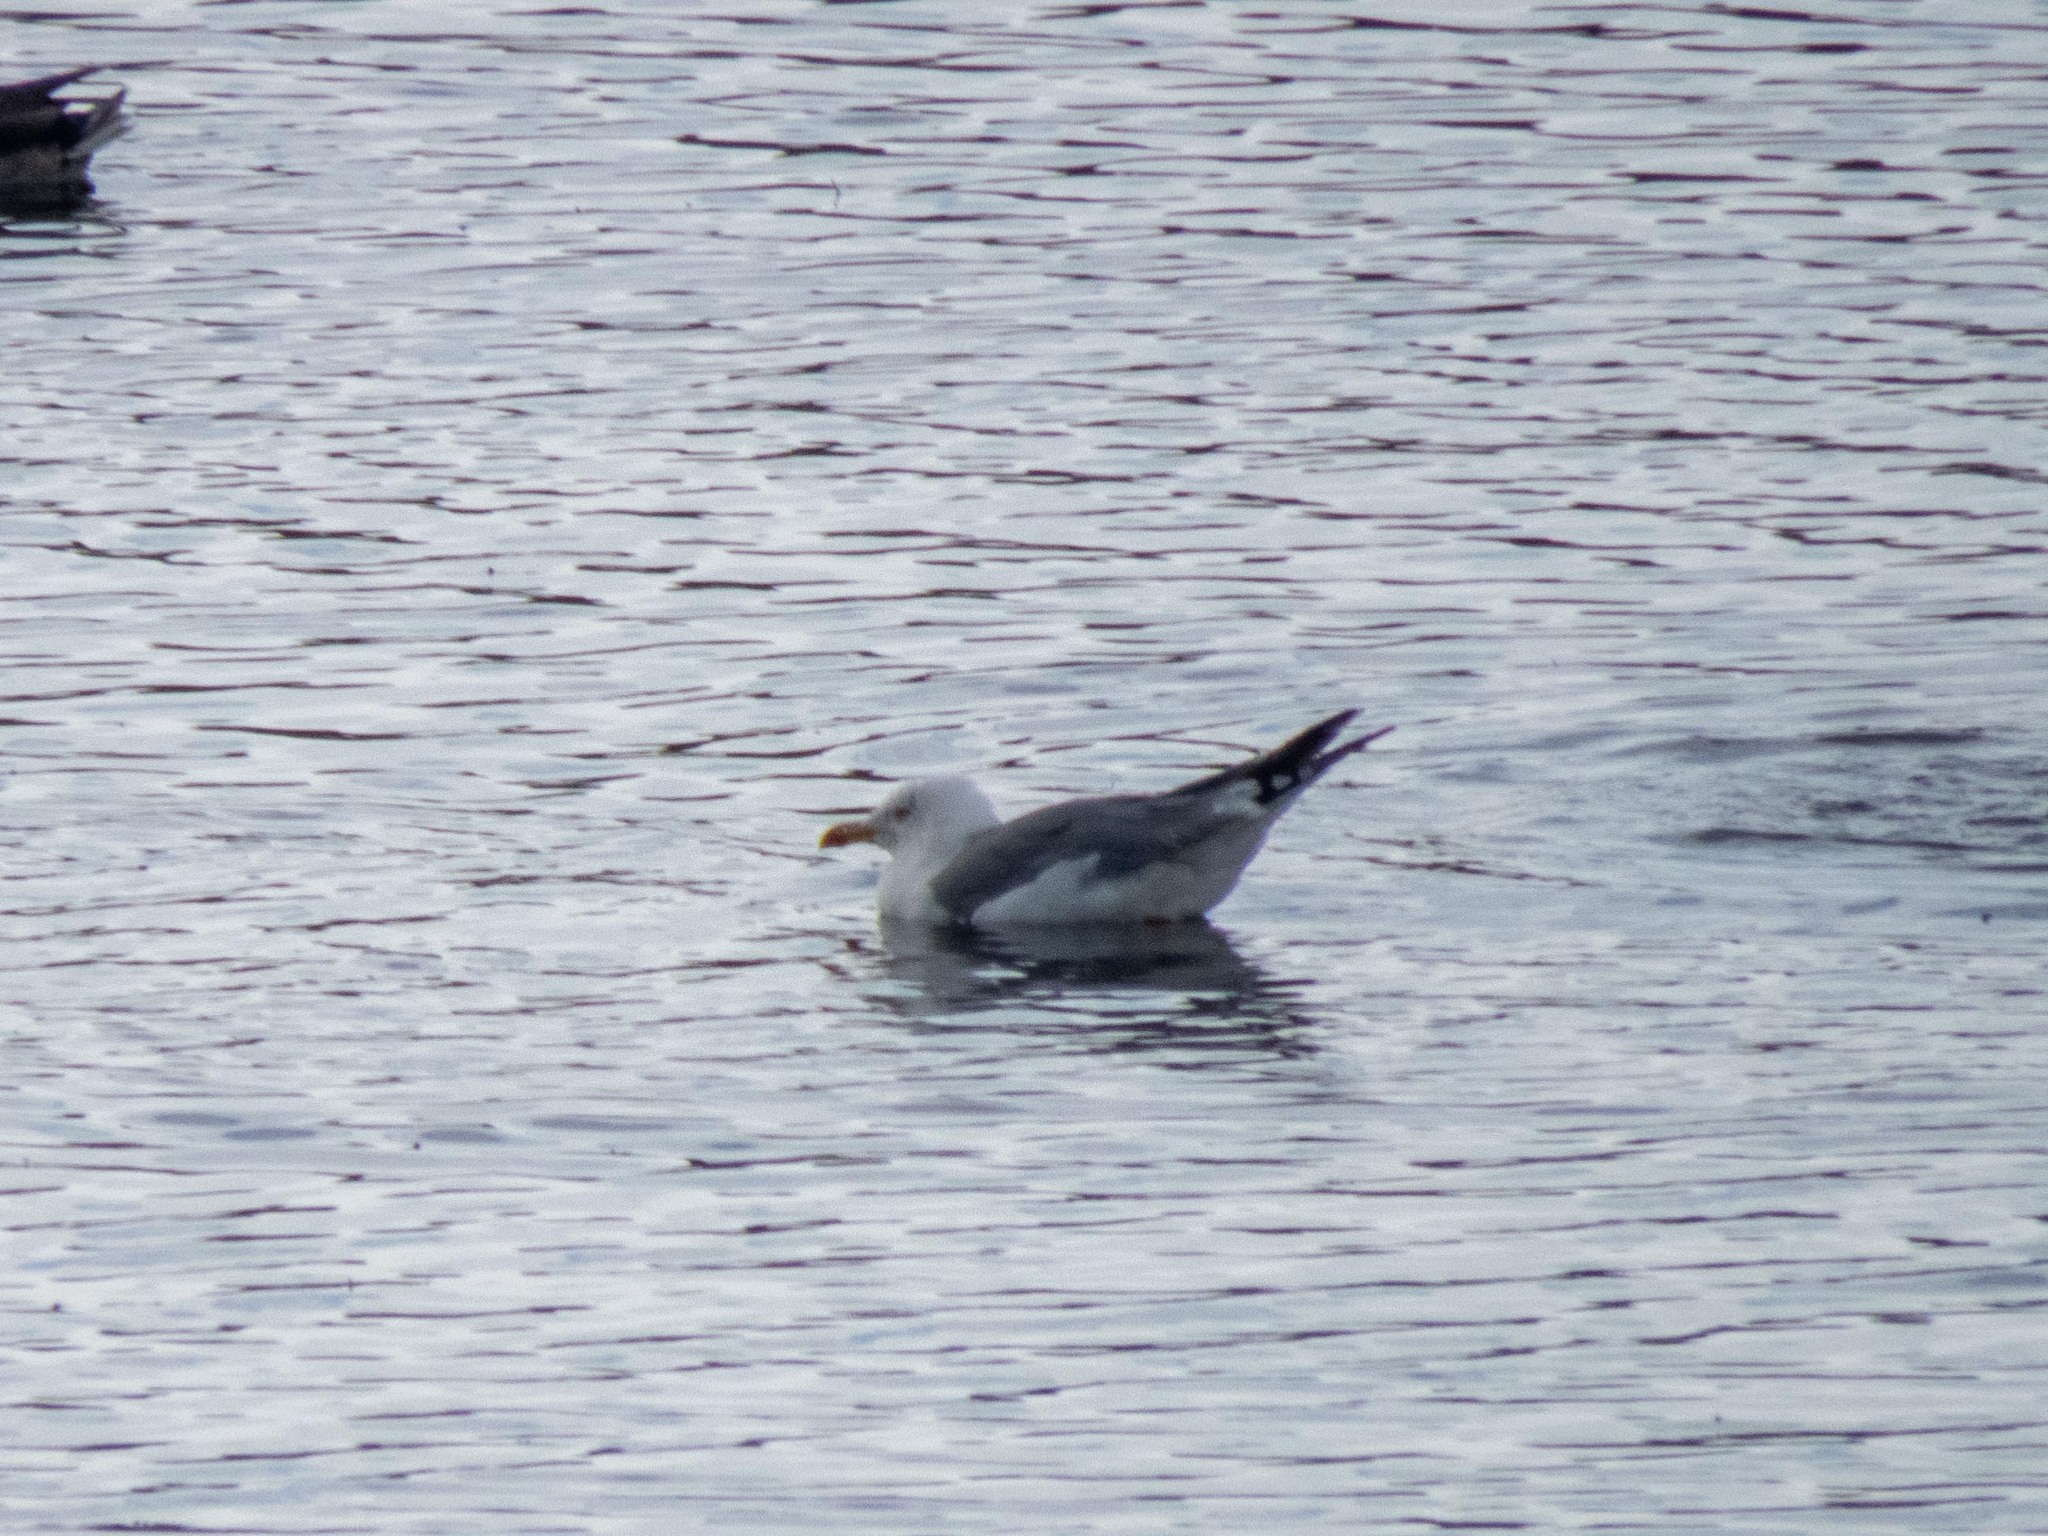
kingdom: Animalia
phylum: Chordata
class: Aves
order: Charadriiformes
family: Laridae
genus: Larus
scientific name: Larus michahellis
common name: Yellow-legged gull
